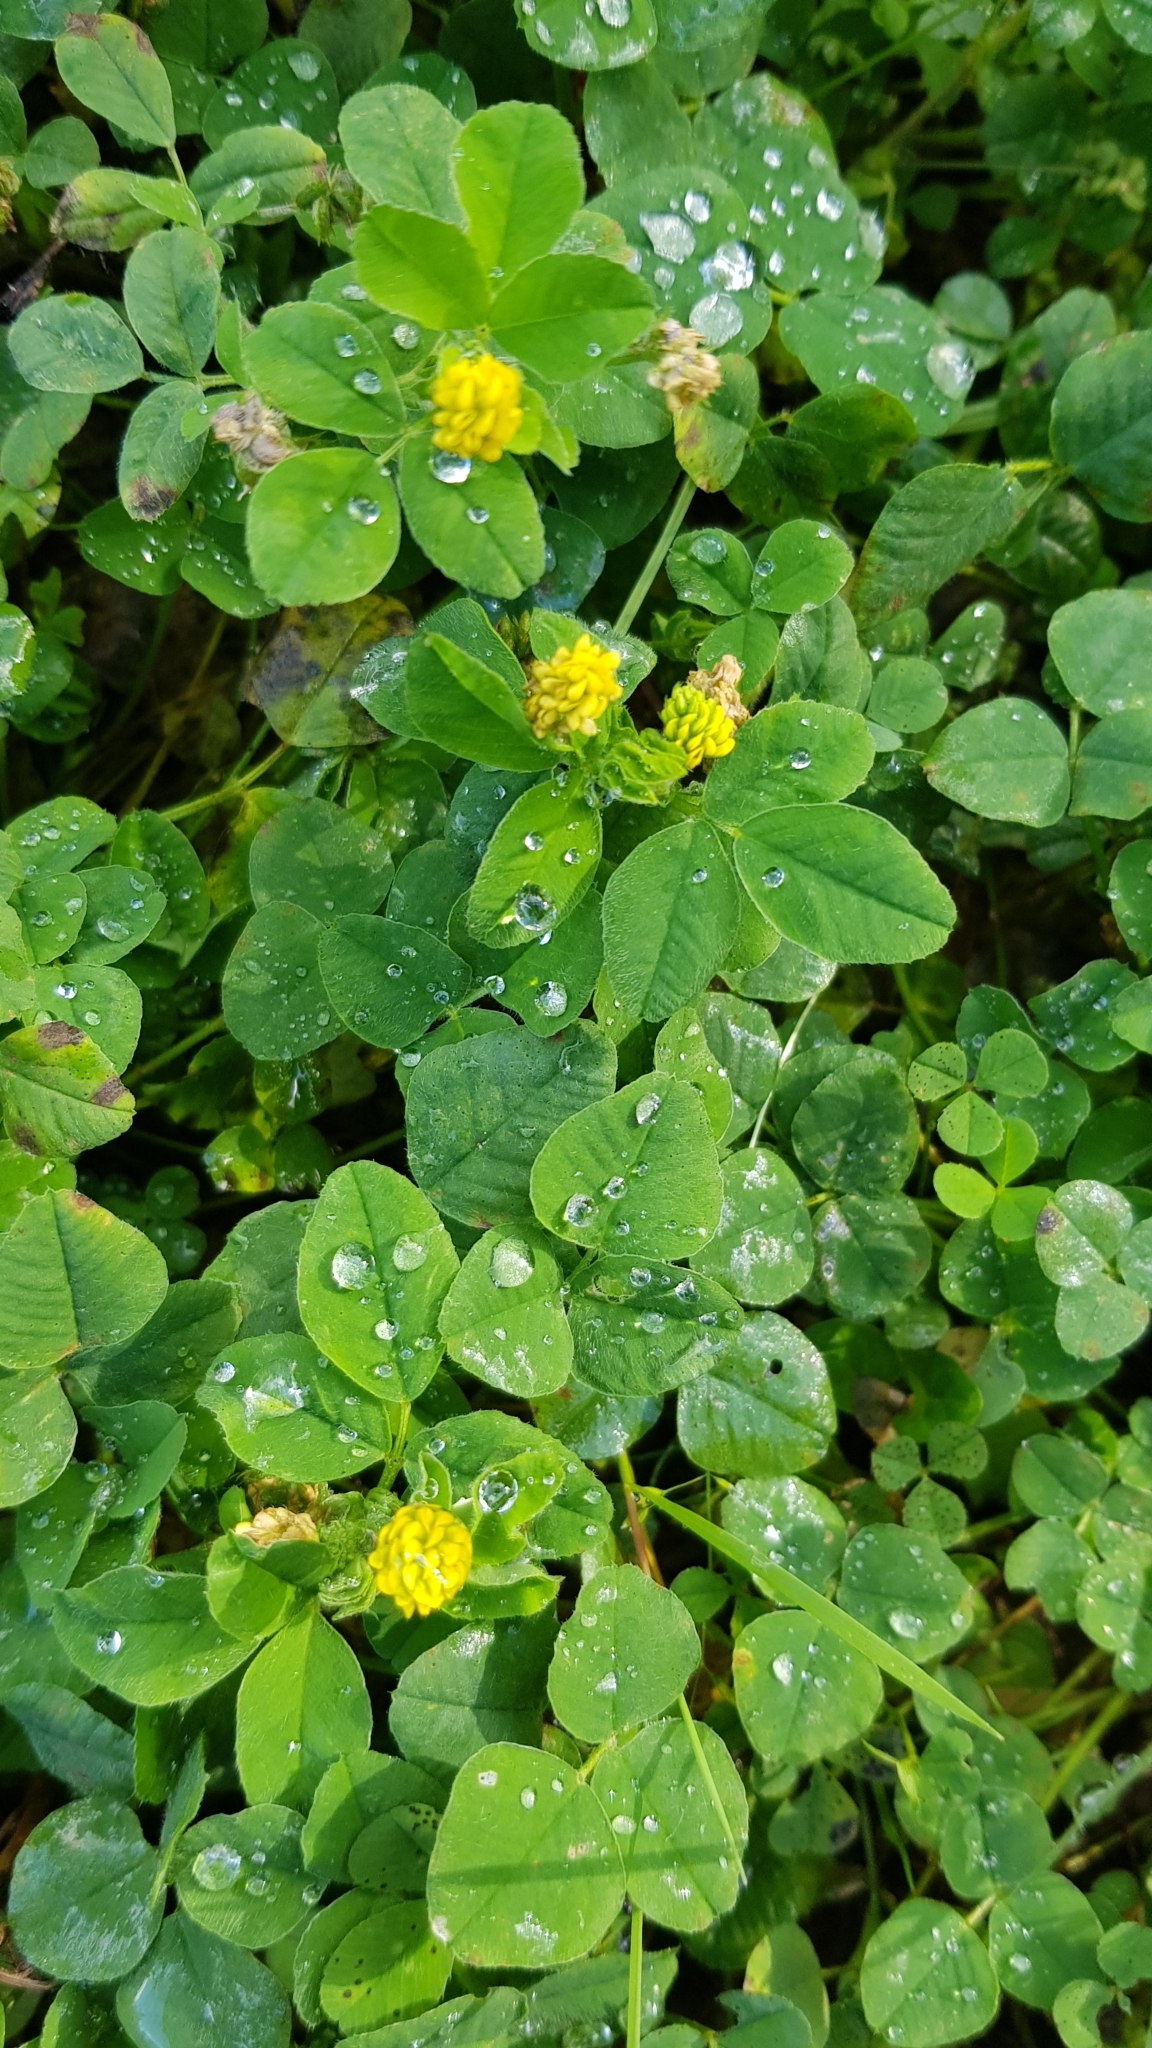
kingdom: Plantae
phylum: Tracheophyta
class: Magnoliopsida
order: Fabales
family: Fabaceae
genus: Medicago
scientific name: Medicago lupulina
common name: Black medick
